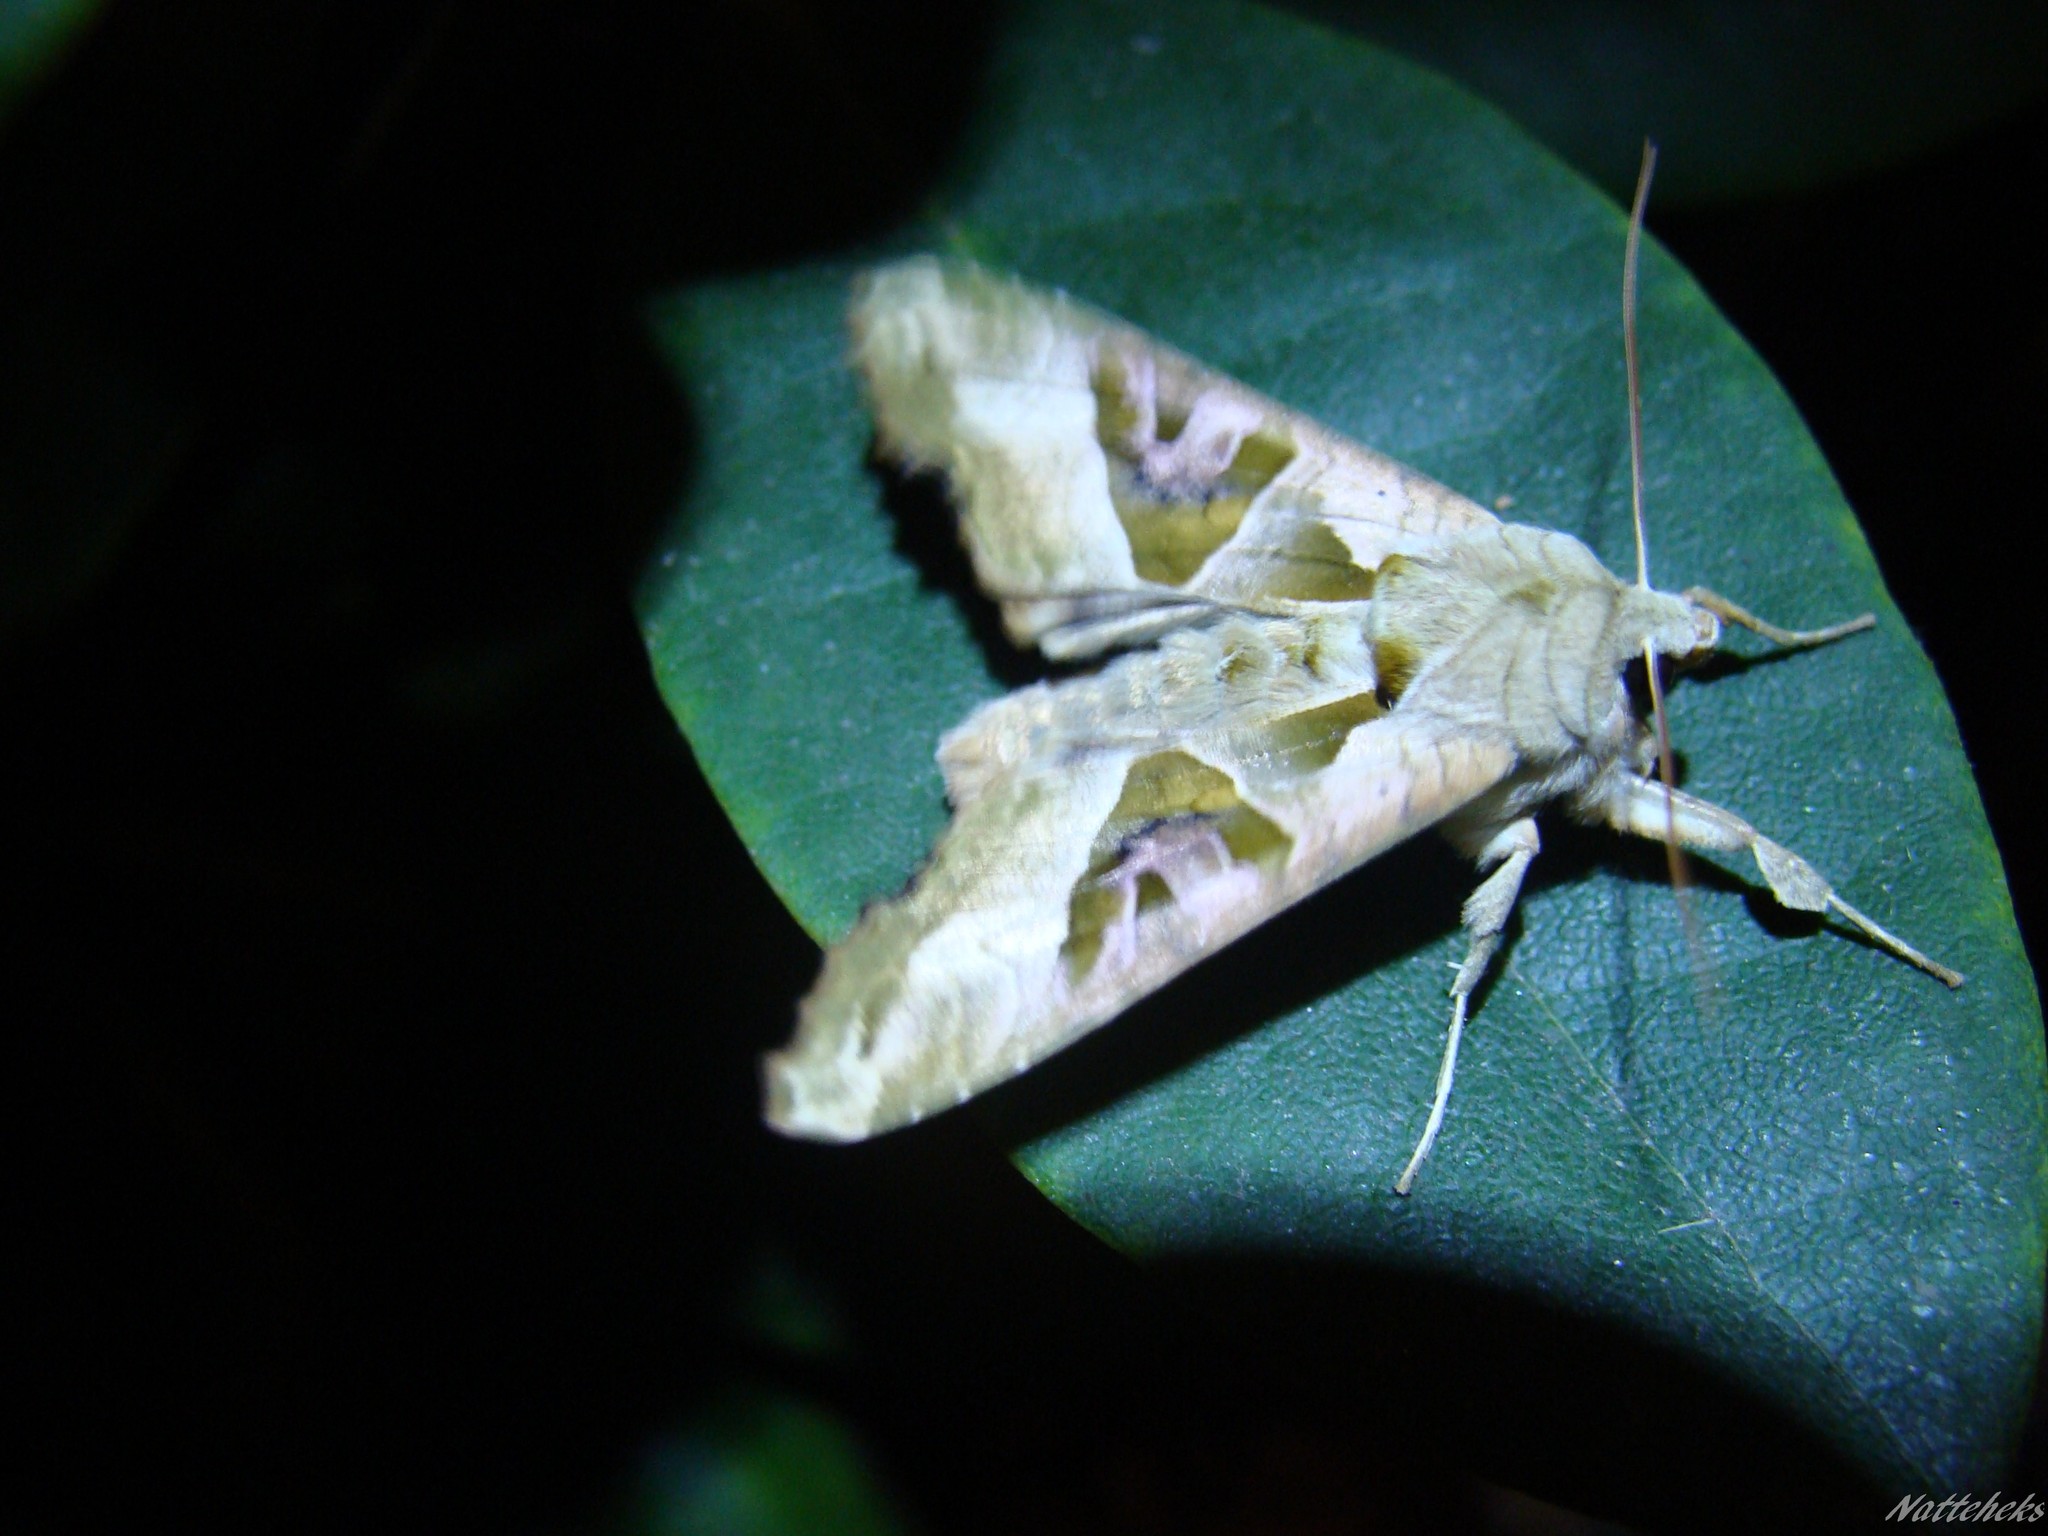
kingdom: Animalia
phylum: Arthropoda
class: Insecta
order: Lepidoptera
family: Noctuidae
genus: Phlogophora
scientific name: Phlogophora meticulosa
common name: Angle shades
